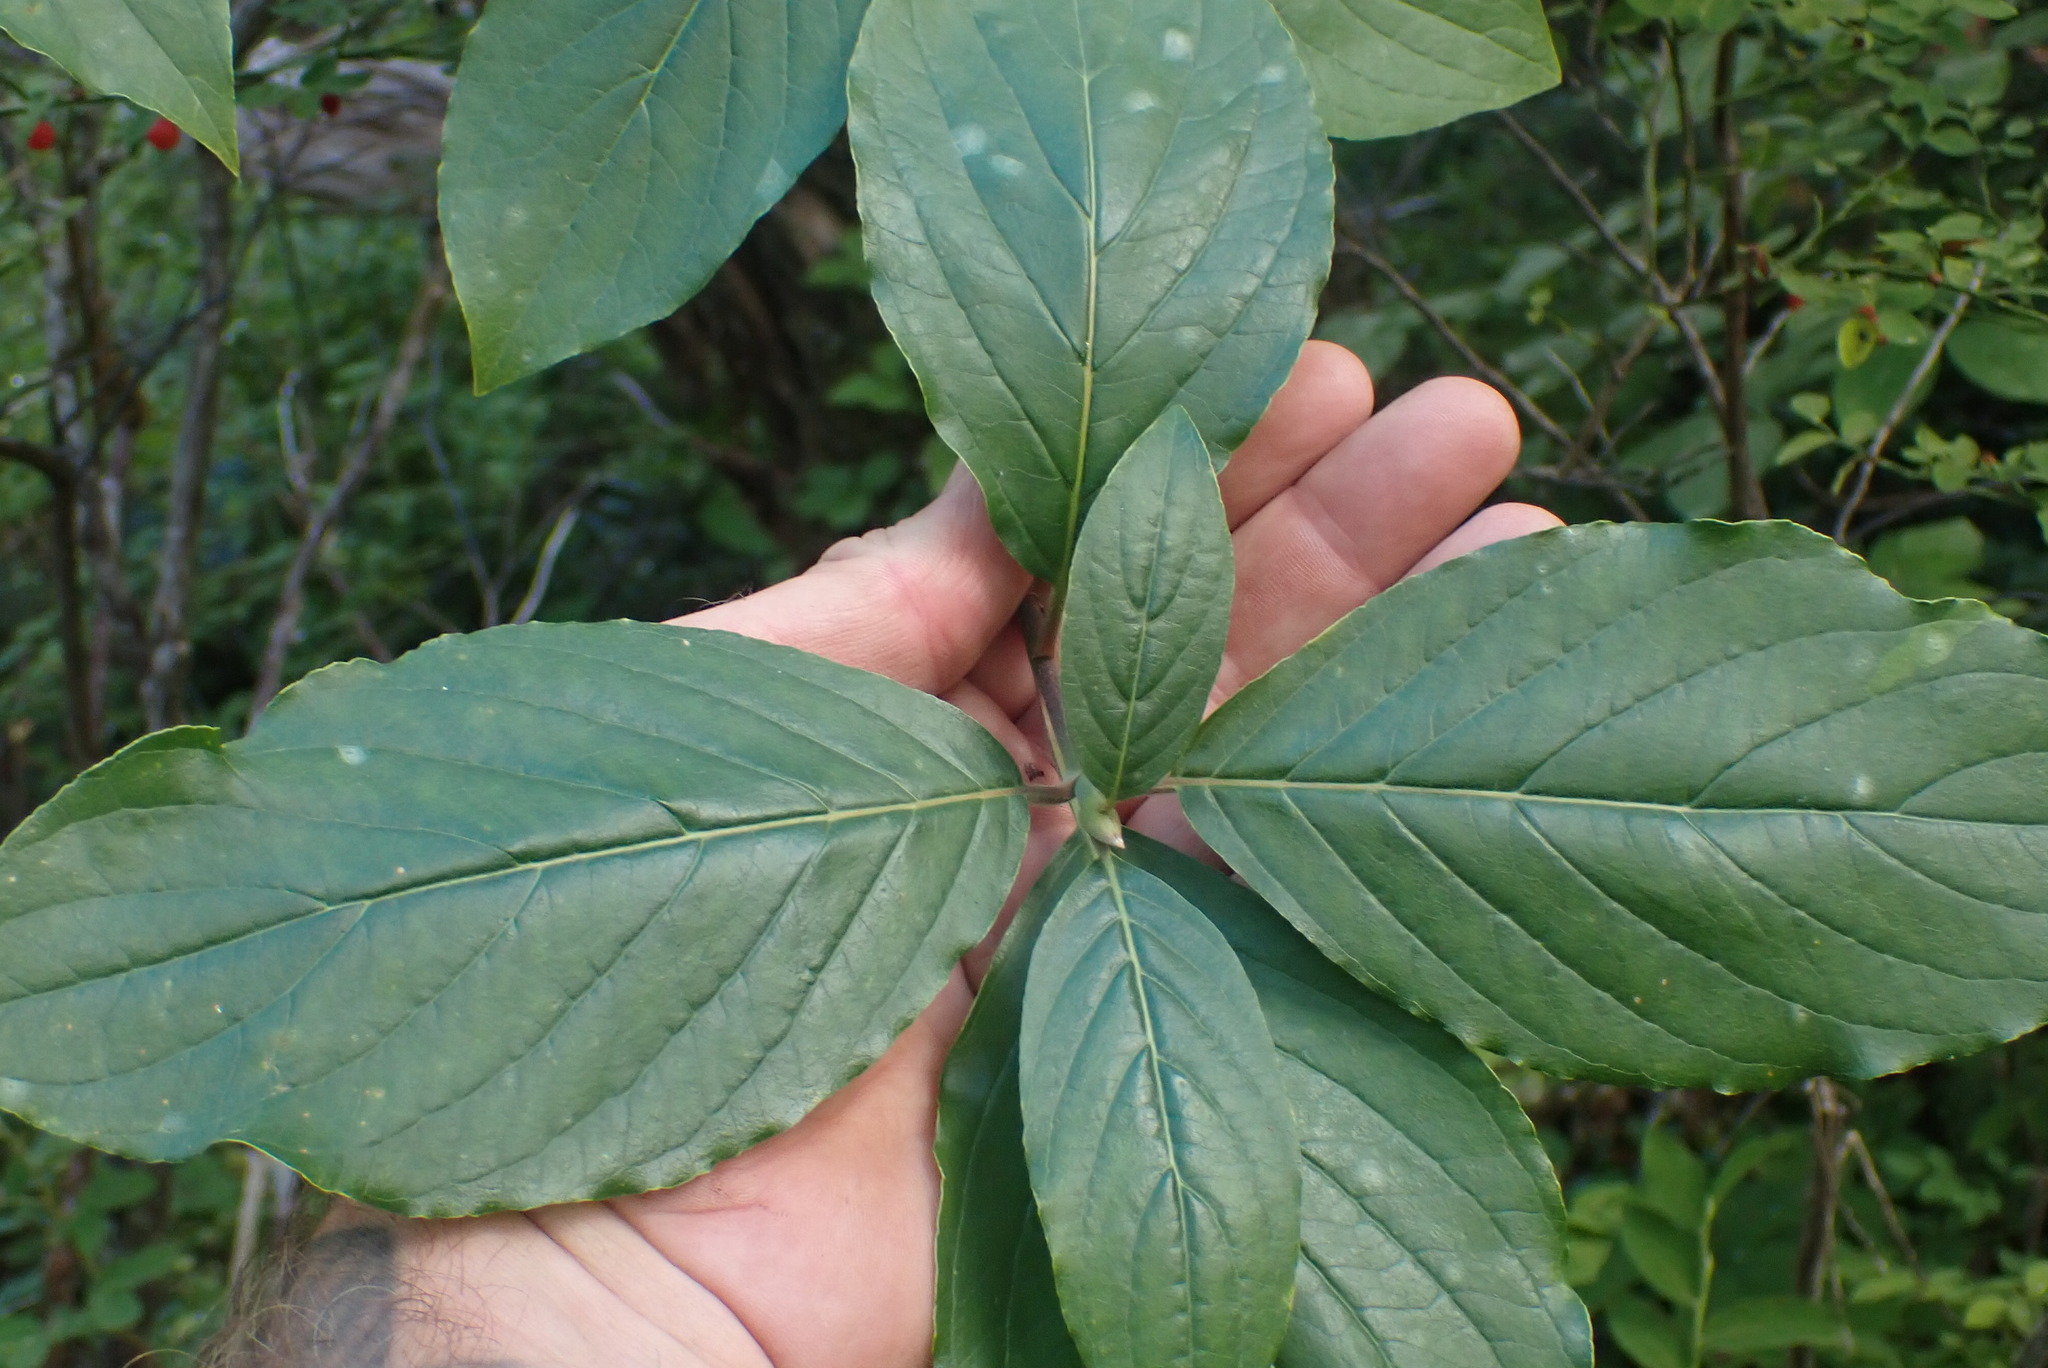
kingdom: Plantae
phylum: Tracheophyta
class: Magnoliopsida
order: Cornales
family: Cornaceae
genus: Cornus
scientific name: Cornus nuttallii
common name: Pacific dogwood
